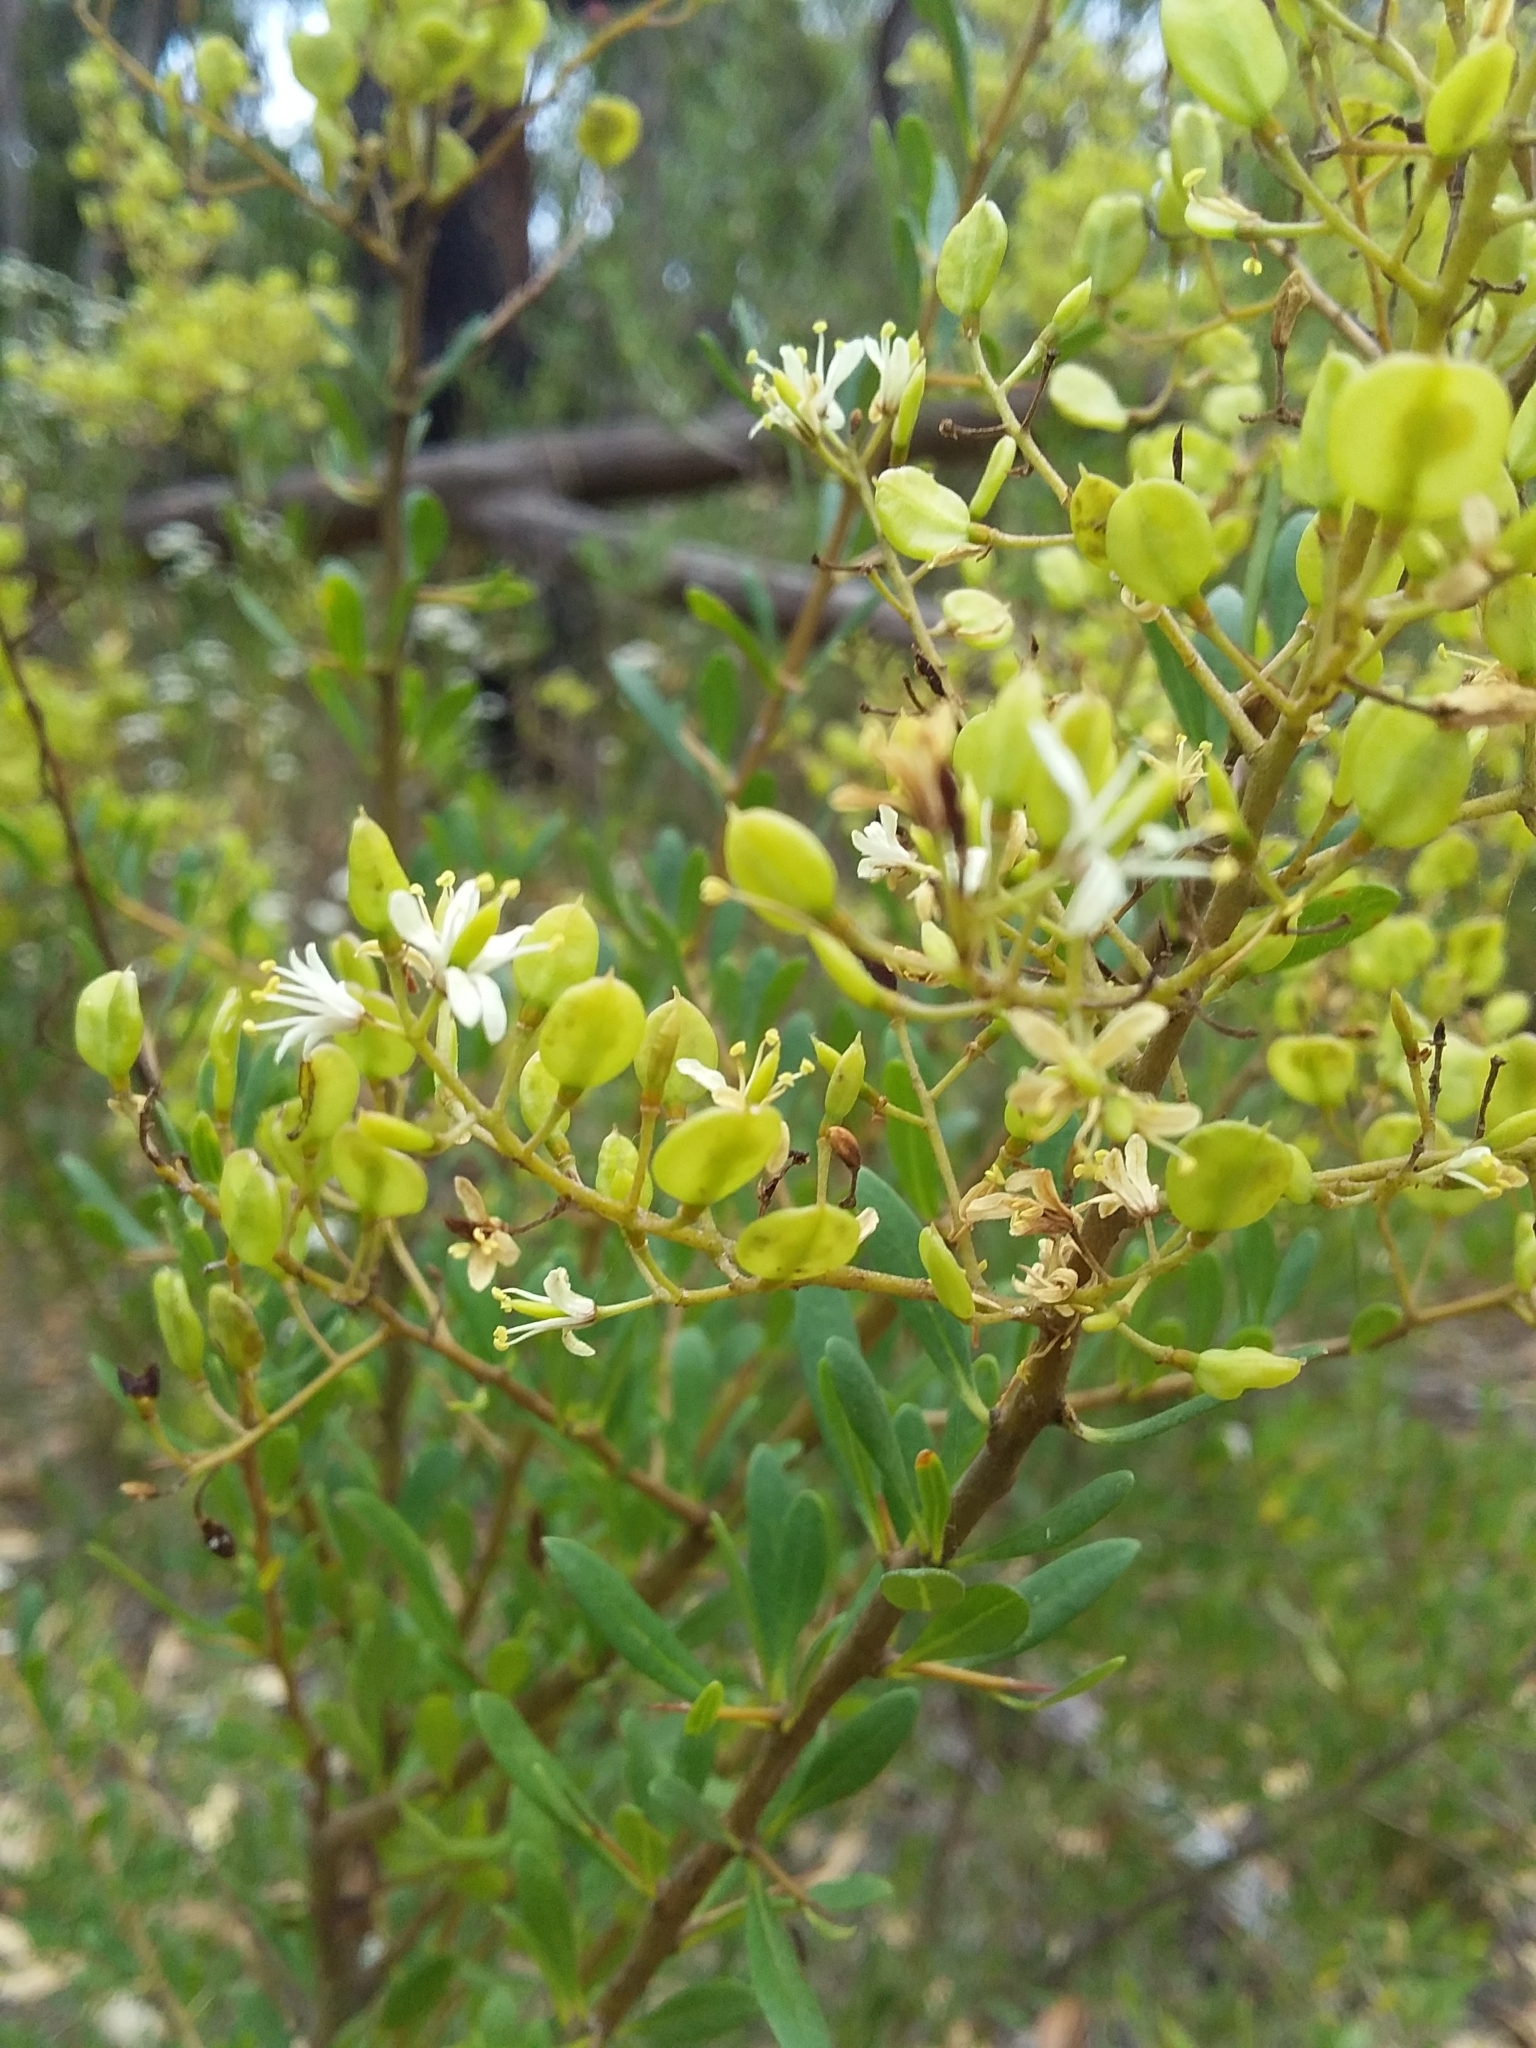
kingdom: Plantae
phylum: Tracheophyta
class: Magnoliopsida
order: Apiales
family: Pittosporaceae
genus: Bursaria
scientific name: Bursaria spinosa
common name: Australian blackthorn
